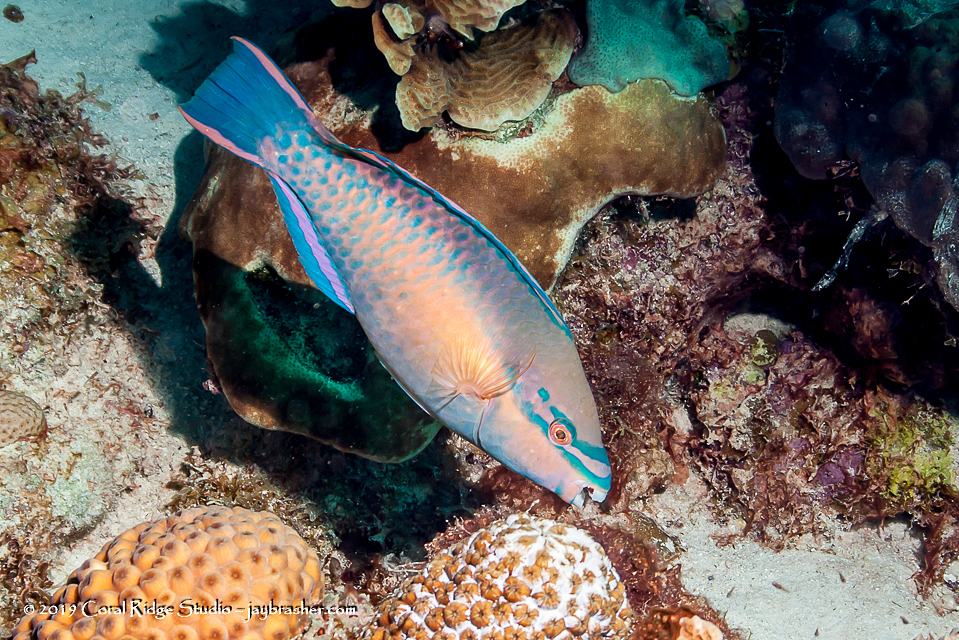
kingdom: Animalia
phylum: Chordata
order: Perciformes
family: Scaridae
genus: Scarus
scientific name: Scarus taeniopterus
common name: Princess parrotfish
